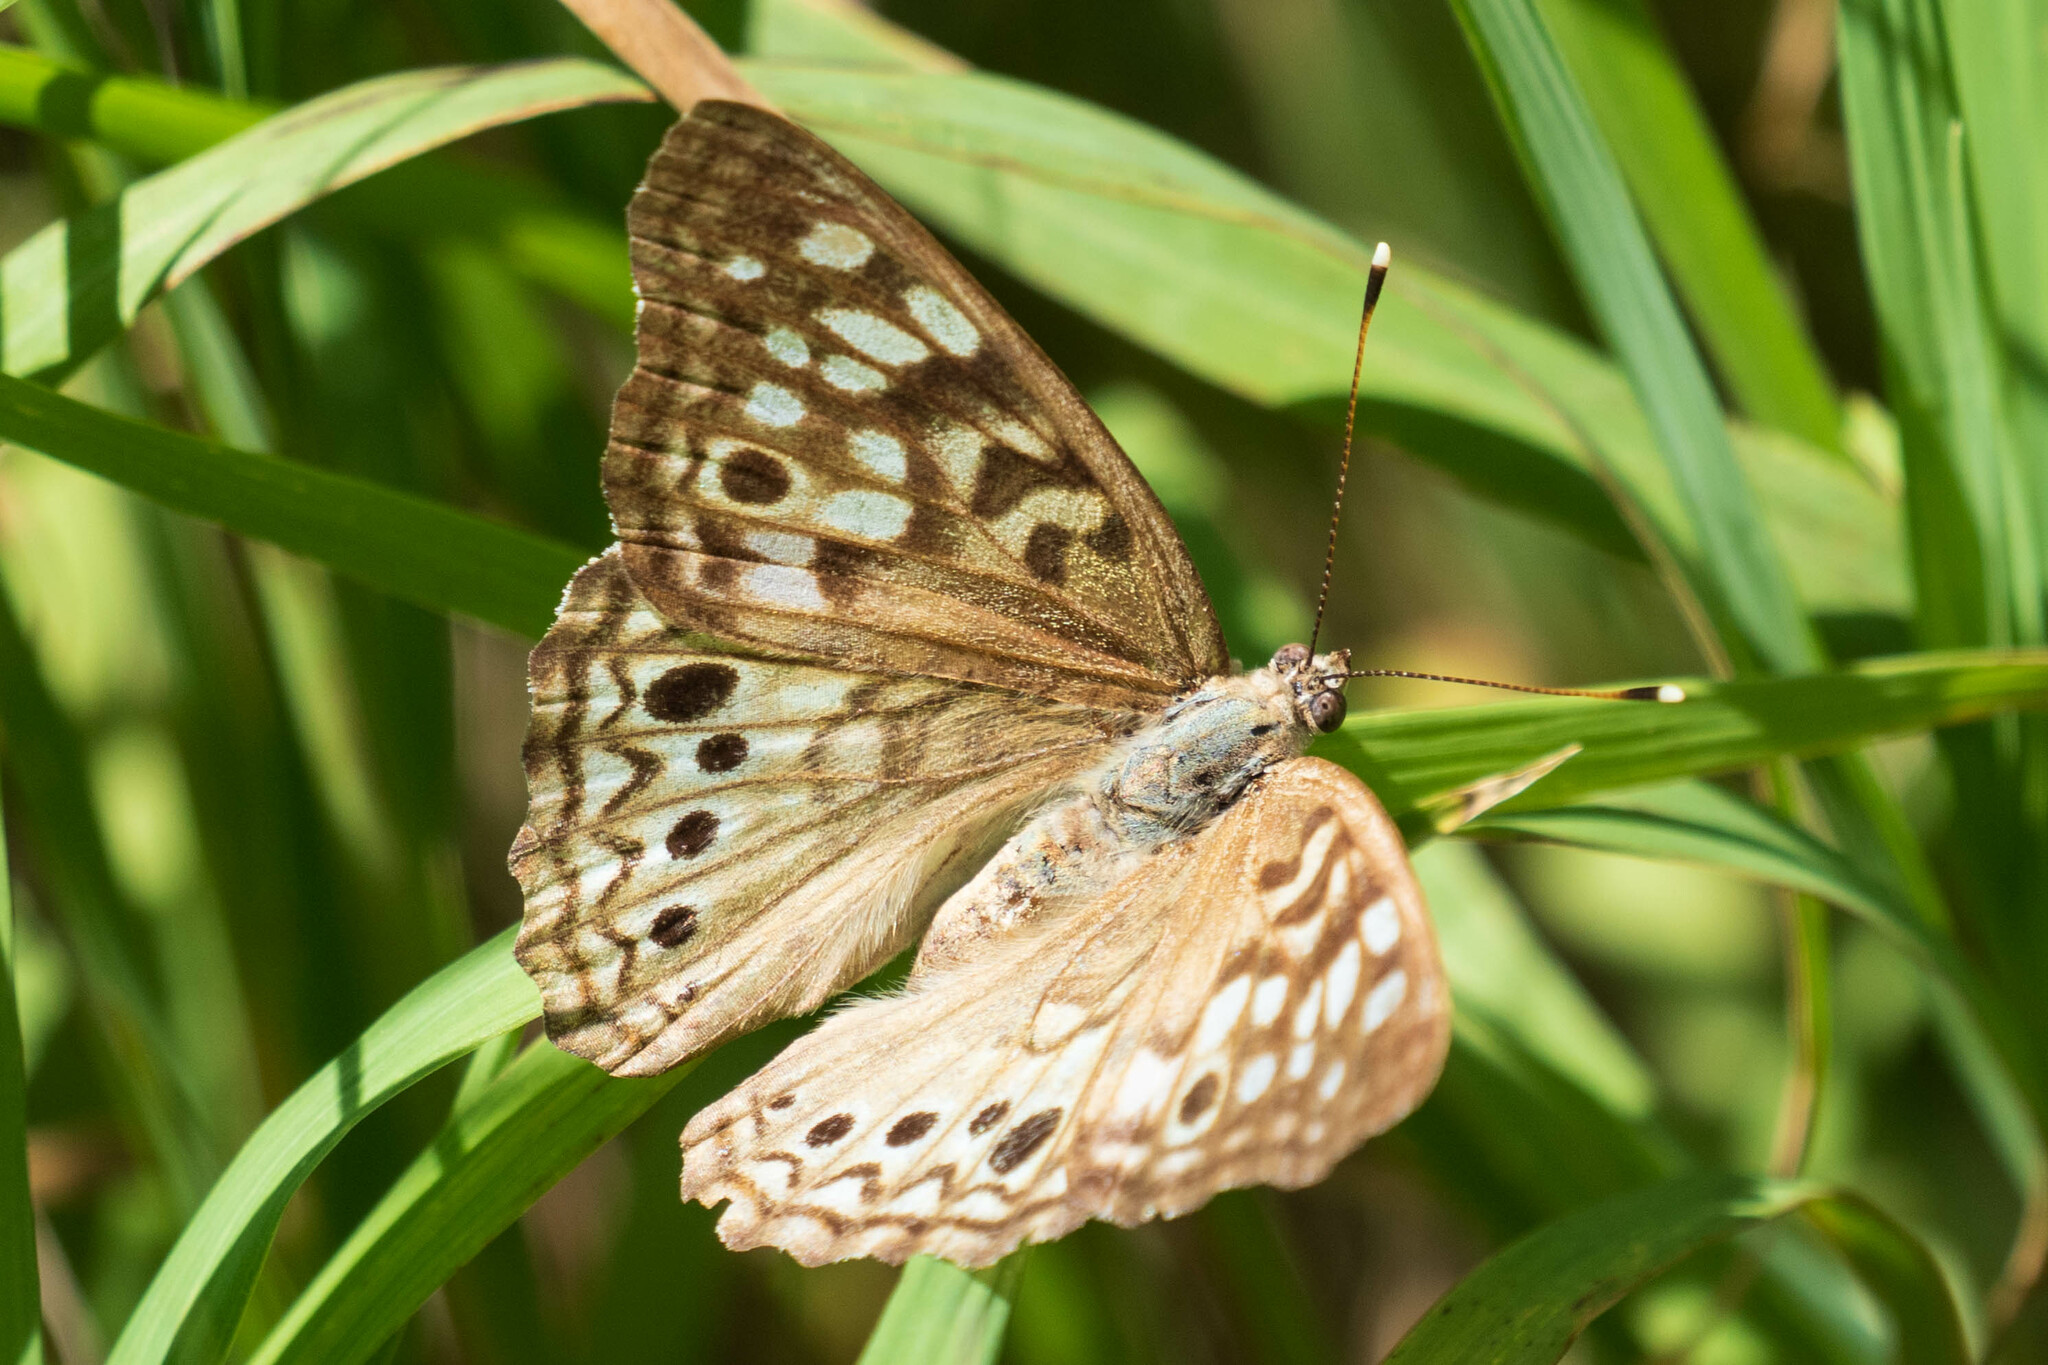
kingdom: Animalia
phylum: Arthropoda
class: Insecta
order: Lepidoptera
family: Nymphalidae
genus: Asterocampa
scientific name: Asterocampa celtis
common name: Hackberry emperor
